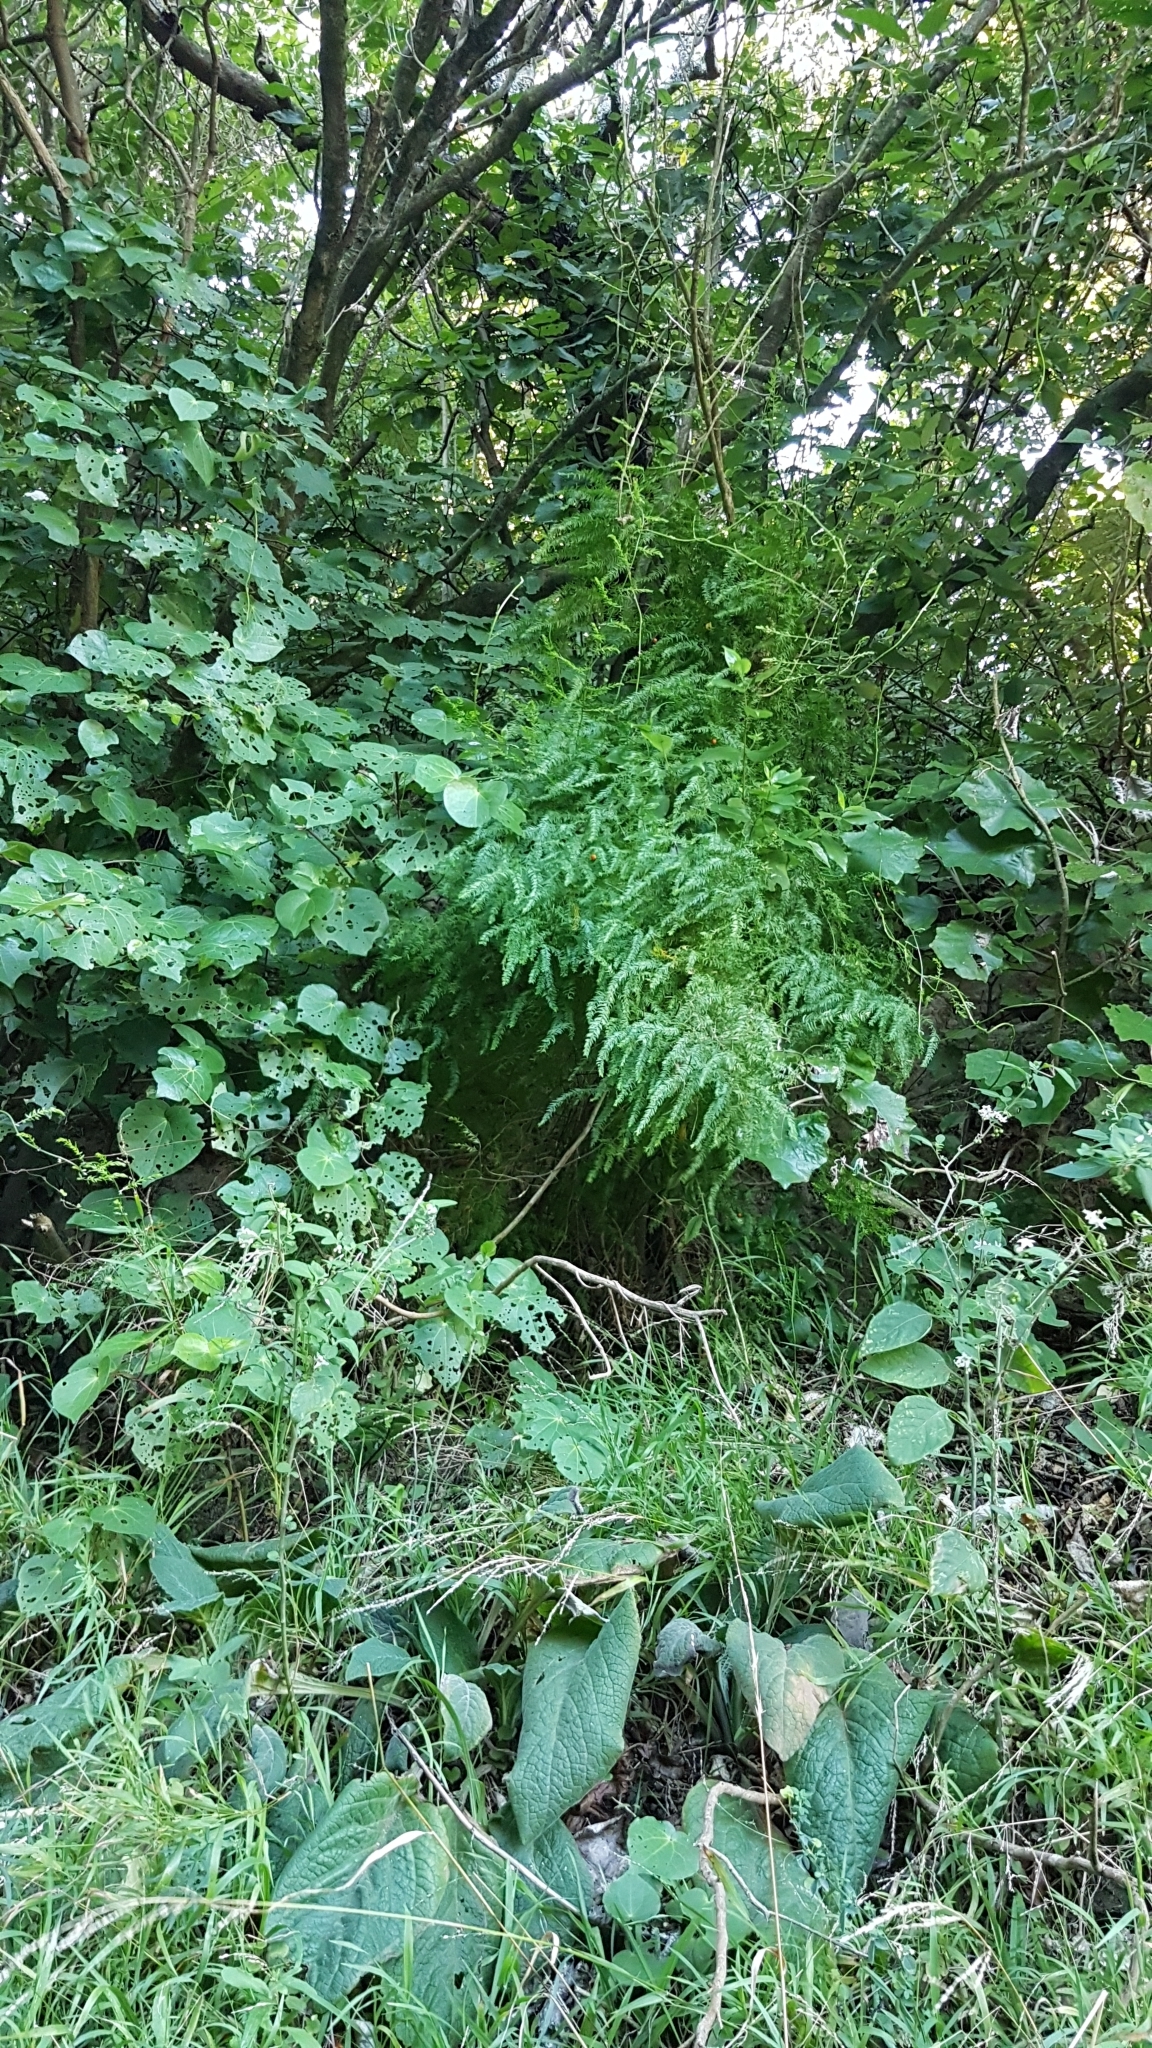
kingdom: Plantae
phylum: Tracheophyta
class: Liliopsida
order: Asparagales
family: Asparagaceae
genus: Asparagus
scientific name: Asparagus scandens
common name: Asparagus-fern
